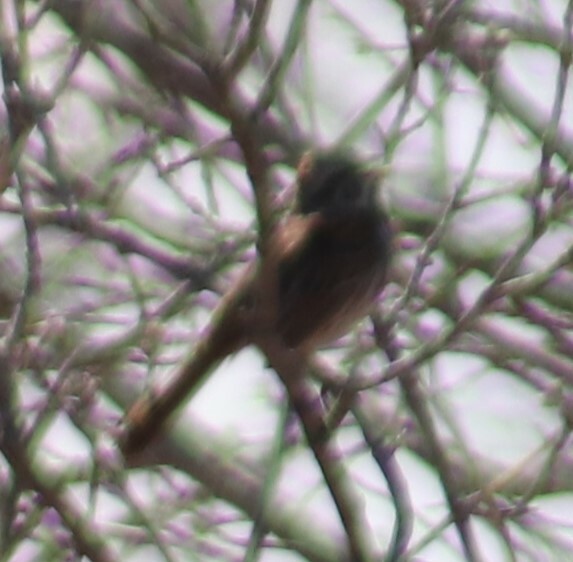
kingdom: Animalia
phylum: Chordata
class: Aves
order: Passeriformes
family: Passerellidae
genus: Melospiza
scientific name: Melospiza melodia
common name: Song sparrow
